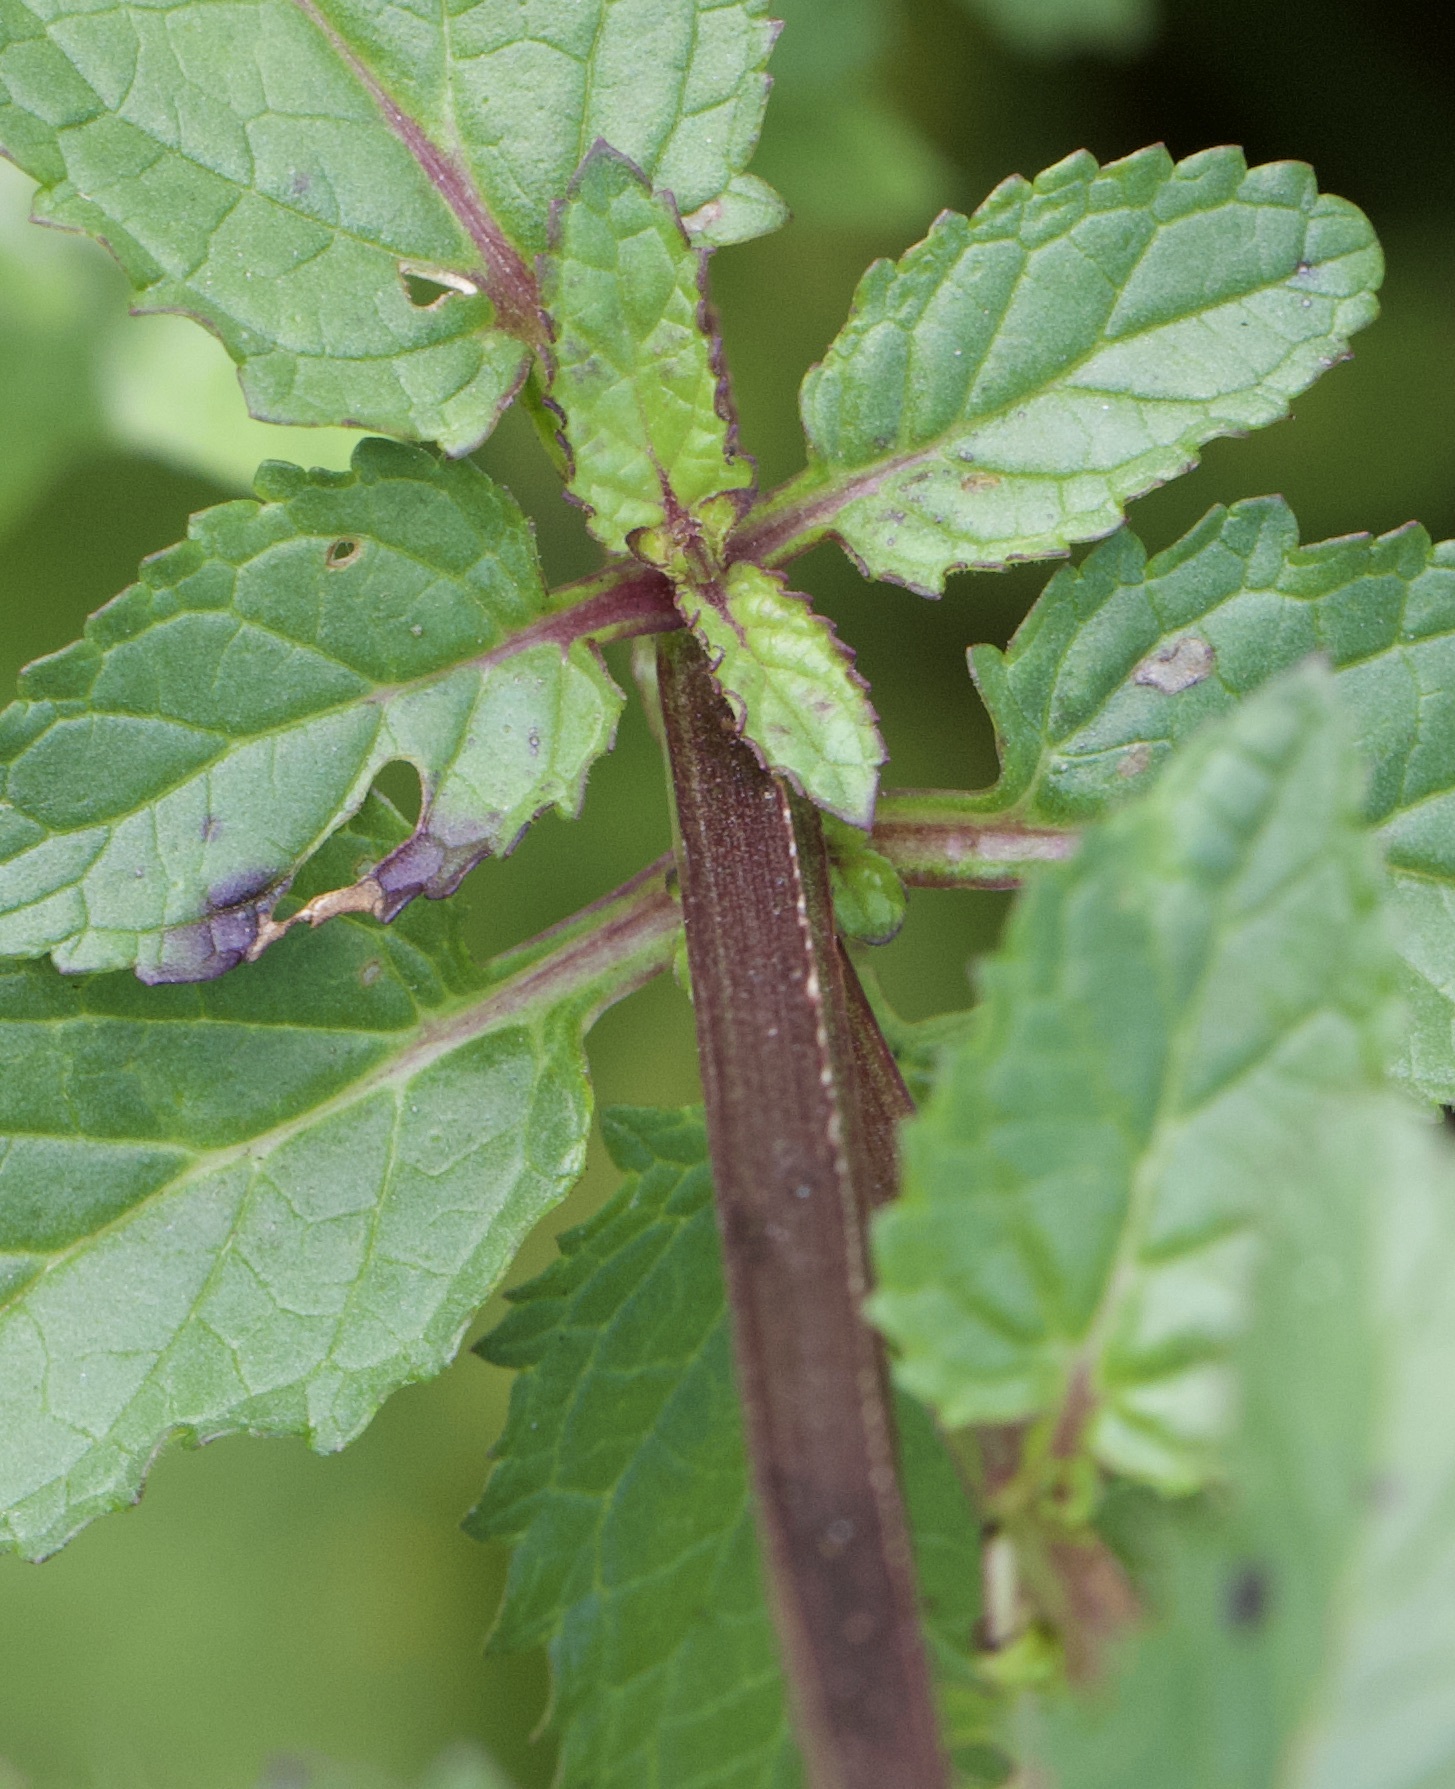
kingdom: Plantae
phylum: Tracheophyta
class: Magnoliopsida
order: Lamiales
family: Scrophulariaceae
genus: Scrophularia
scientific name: Scrophularia auriculata
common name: Water betony
